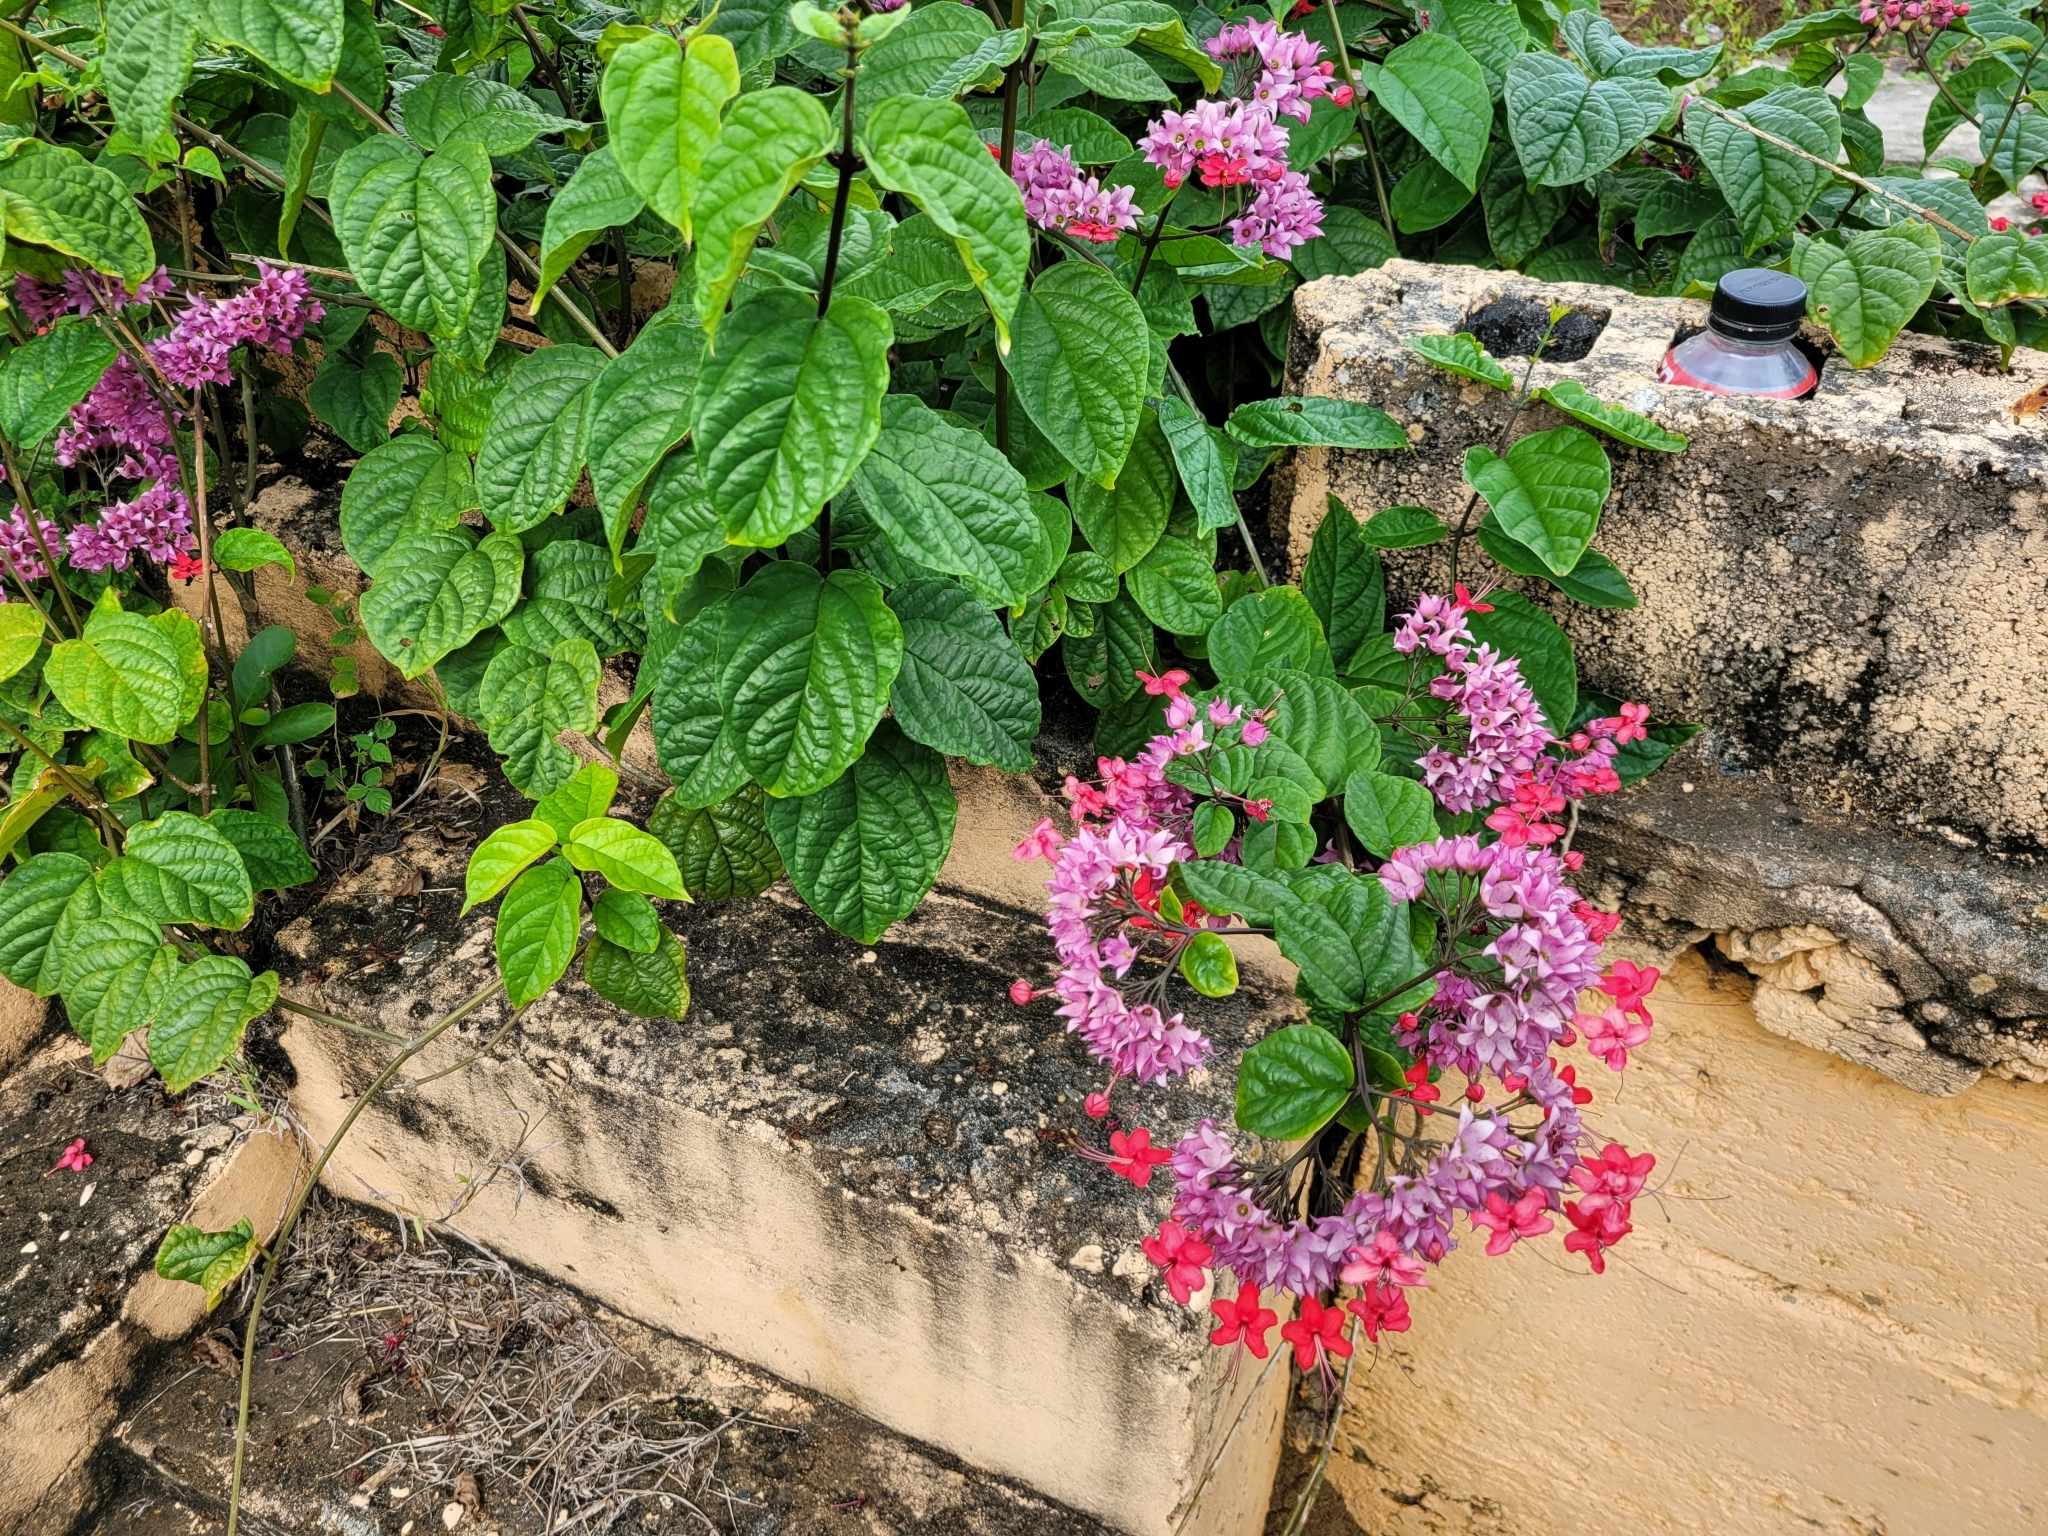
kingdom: Plantae
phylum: Tracheophyta
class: Magnoliopsida
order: Lamiales
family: Lamiaceae
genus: Clerodendrum
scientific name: Clerodendrum speciosum
